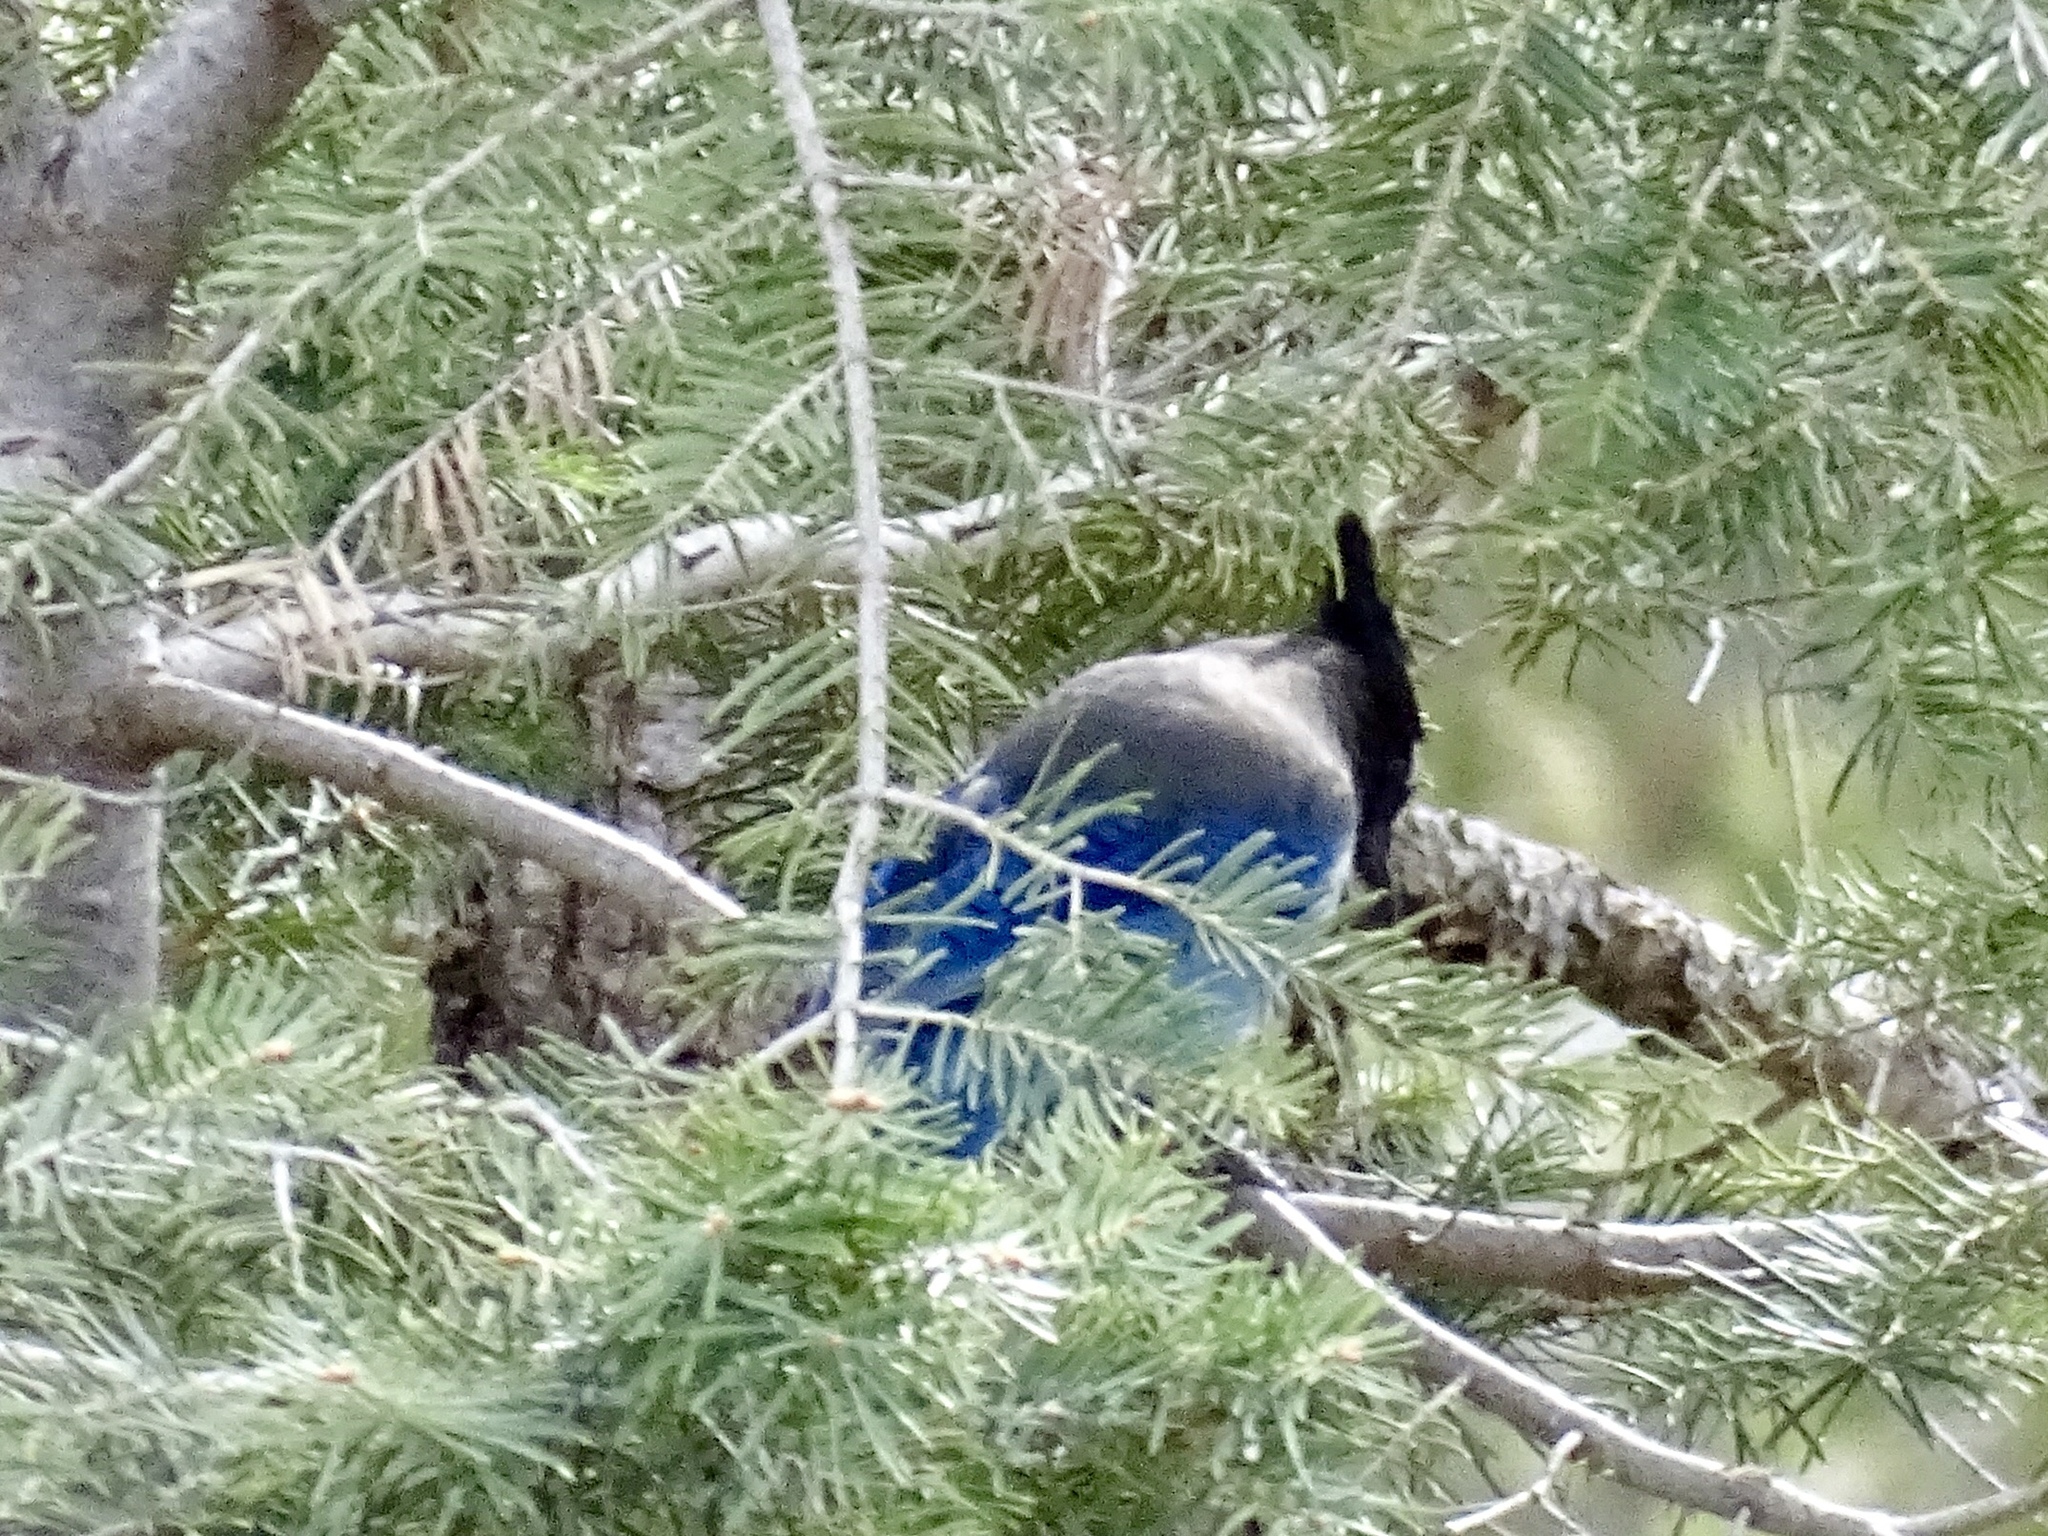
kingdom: Animalia
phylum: Chordata
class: Aves
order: Passeriformes
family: Corvidae
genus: Cyanocitta
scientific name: Cyanocitta stelleri
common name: Steller's jay
